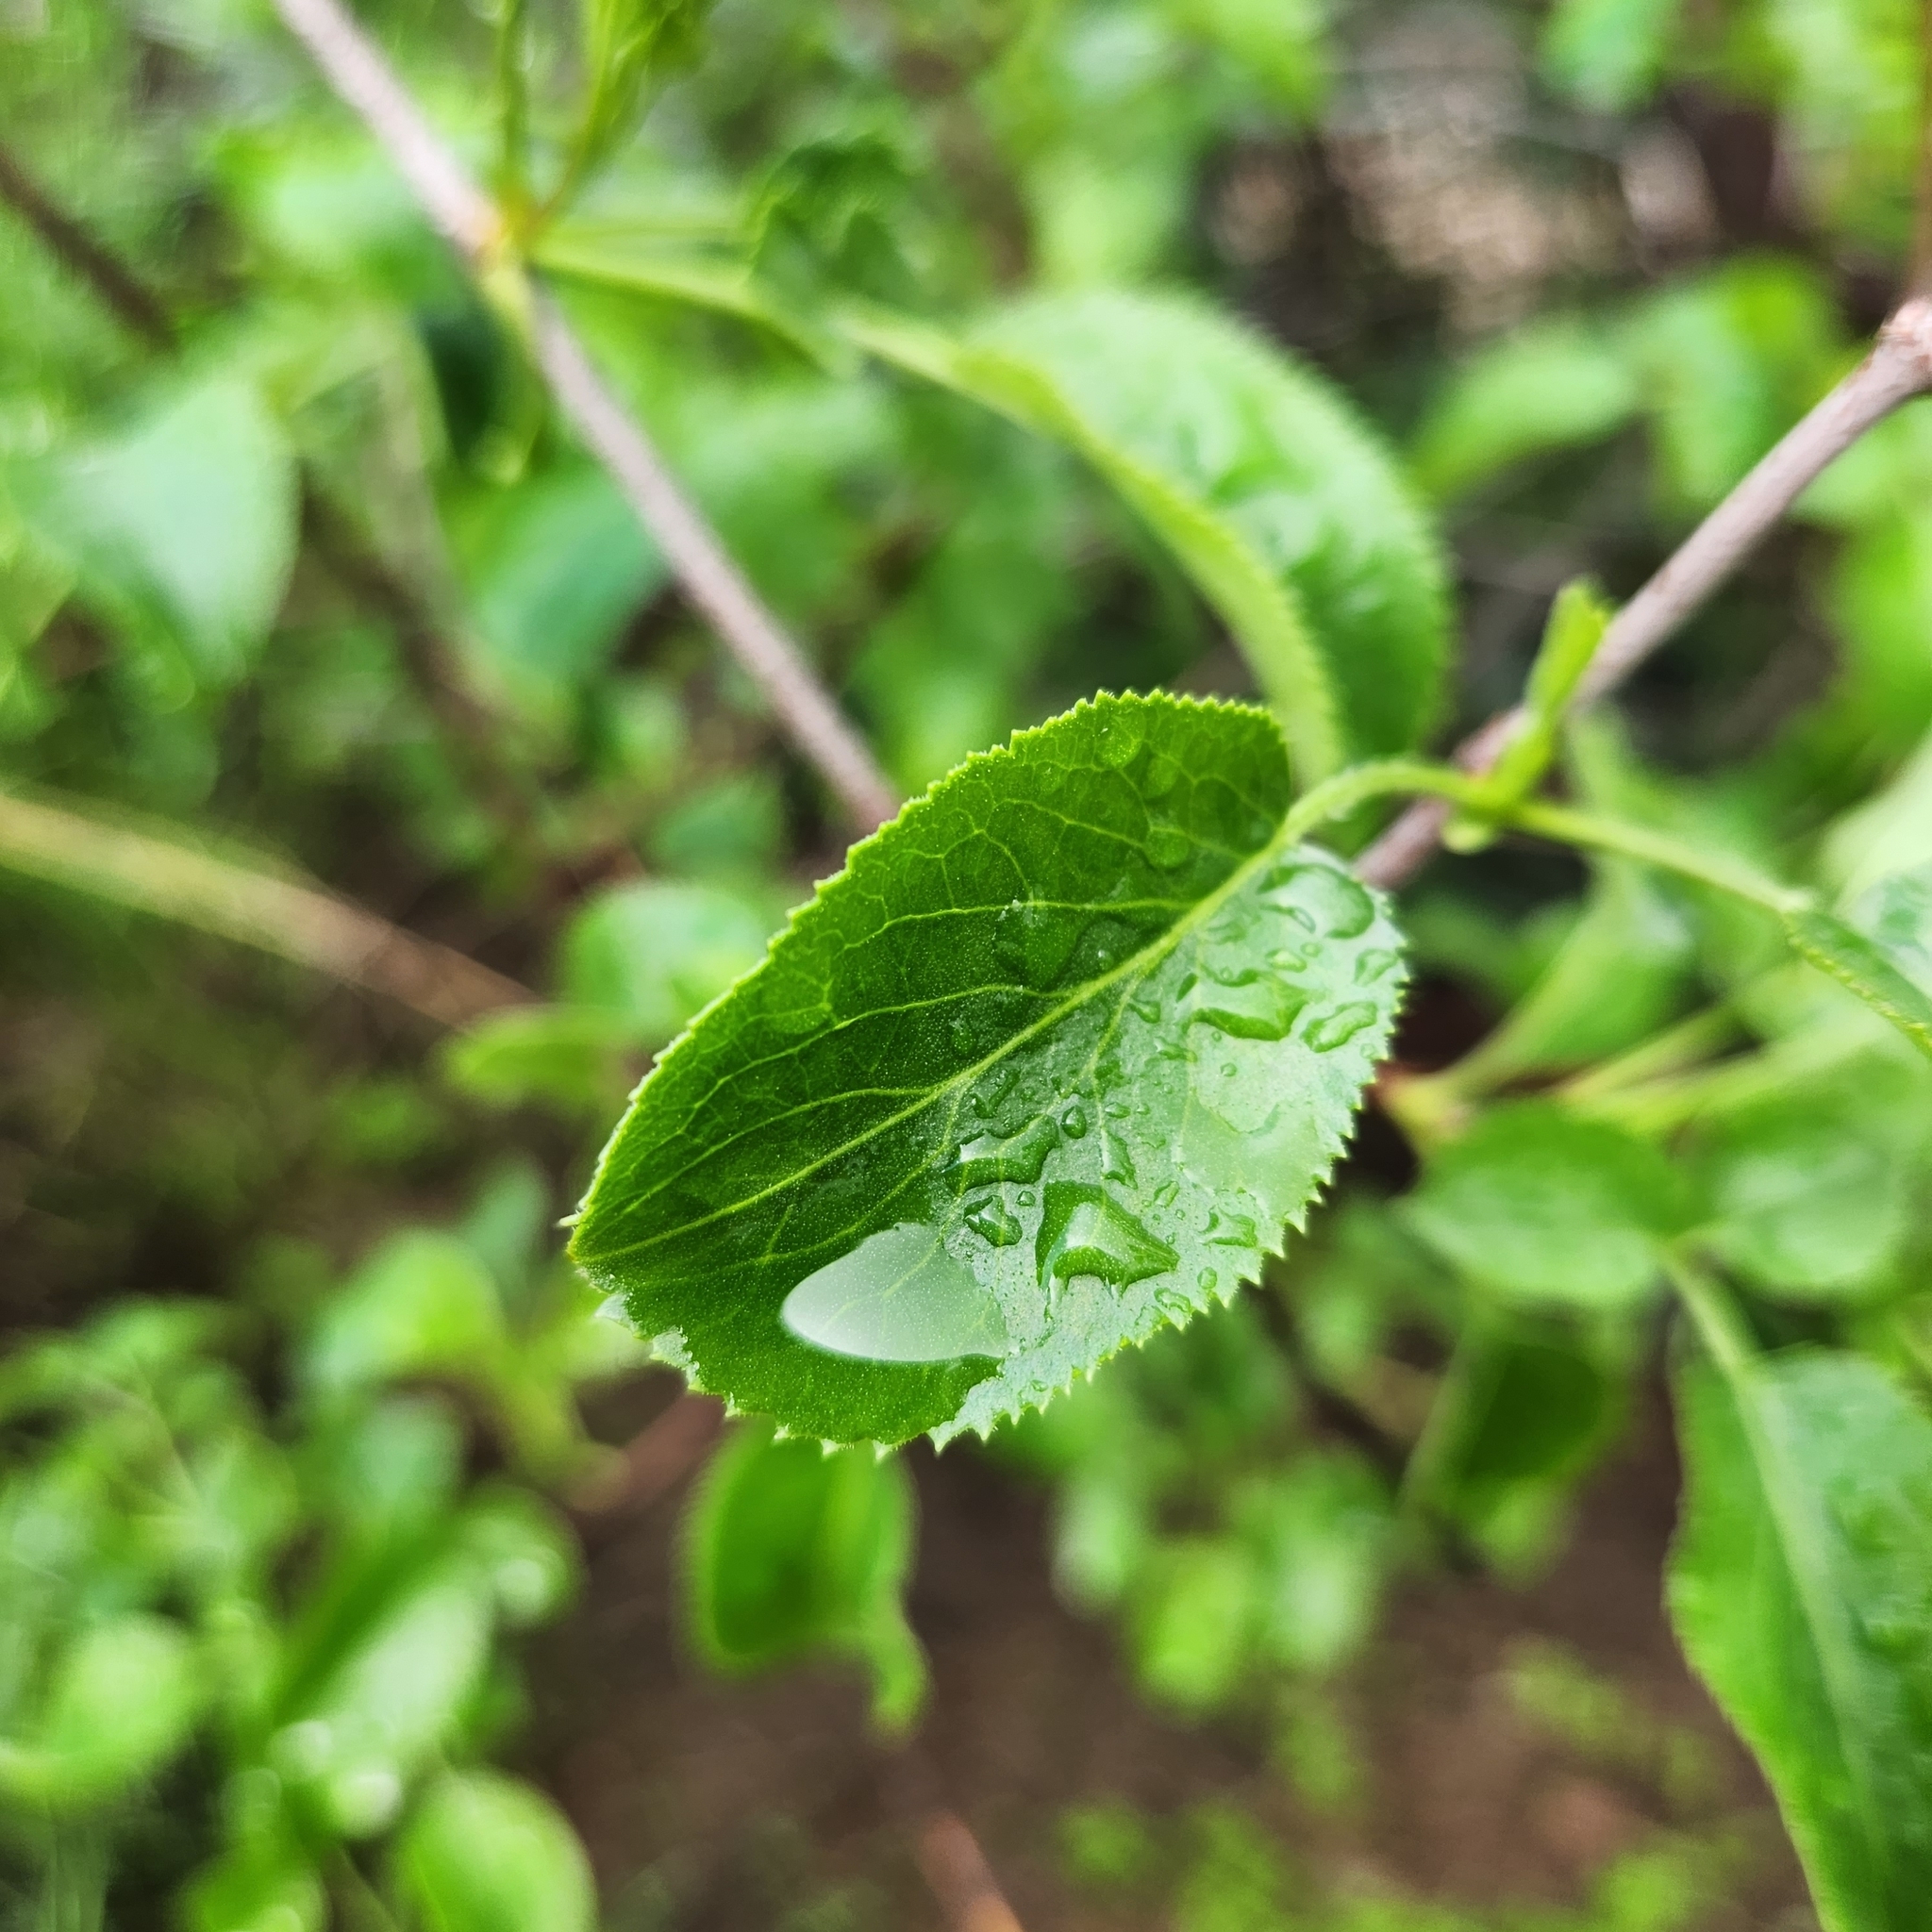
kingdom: Plantae
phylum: Tracheophyta
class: Magnoliopsida
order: Dipsacales
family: Viburnaceae
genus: Sambucus
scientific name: Sambucus cerulea
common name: Blue elder
